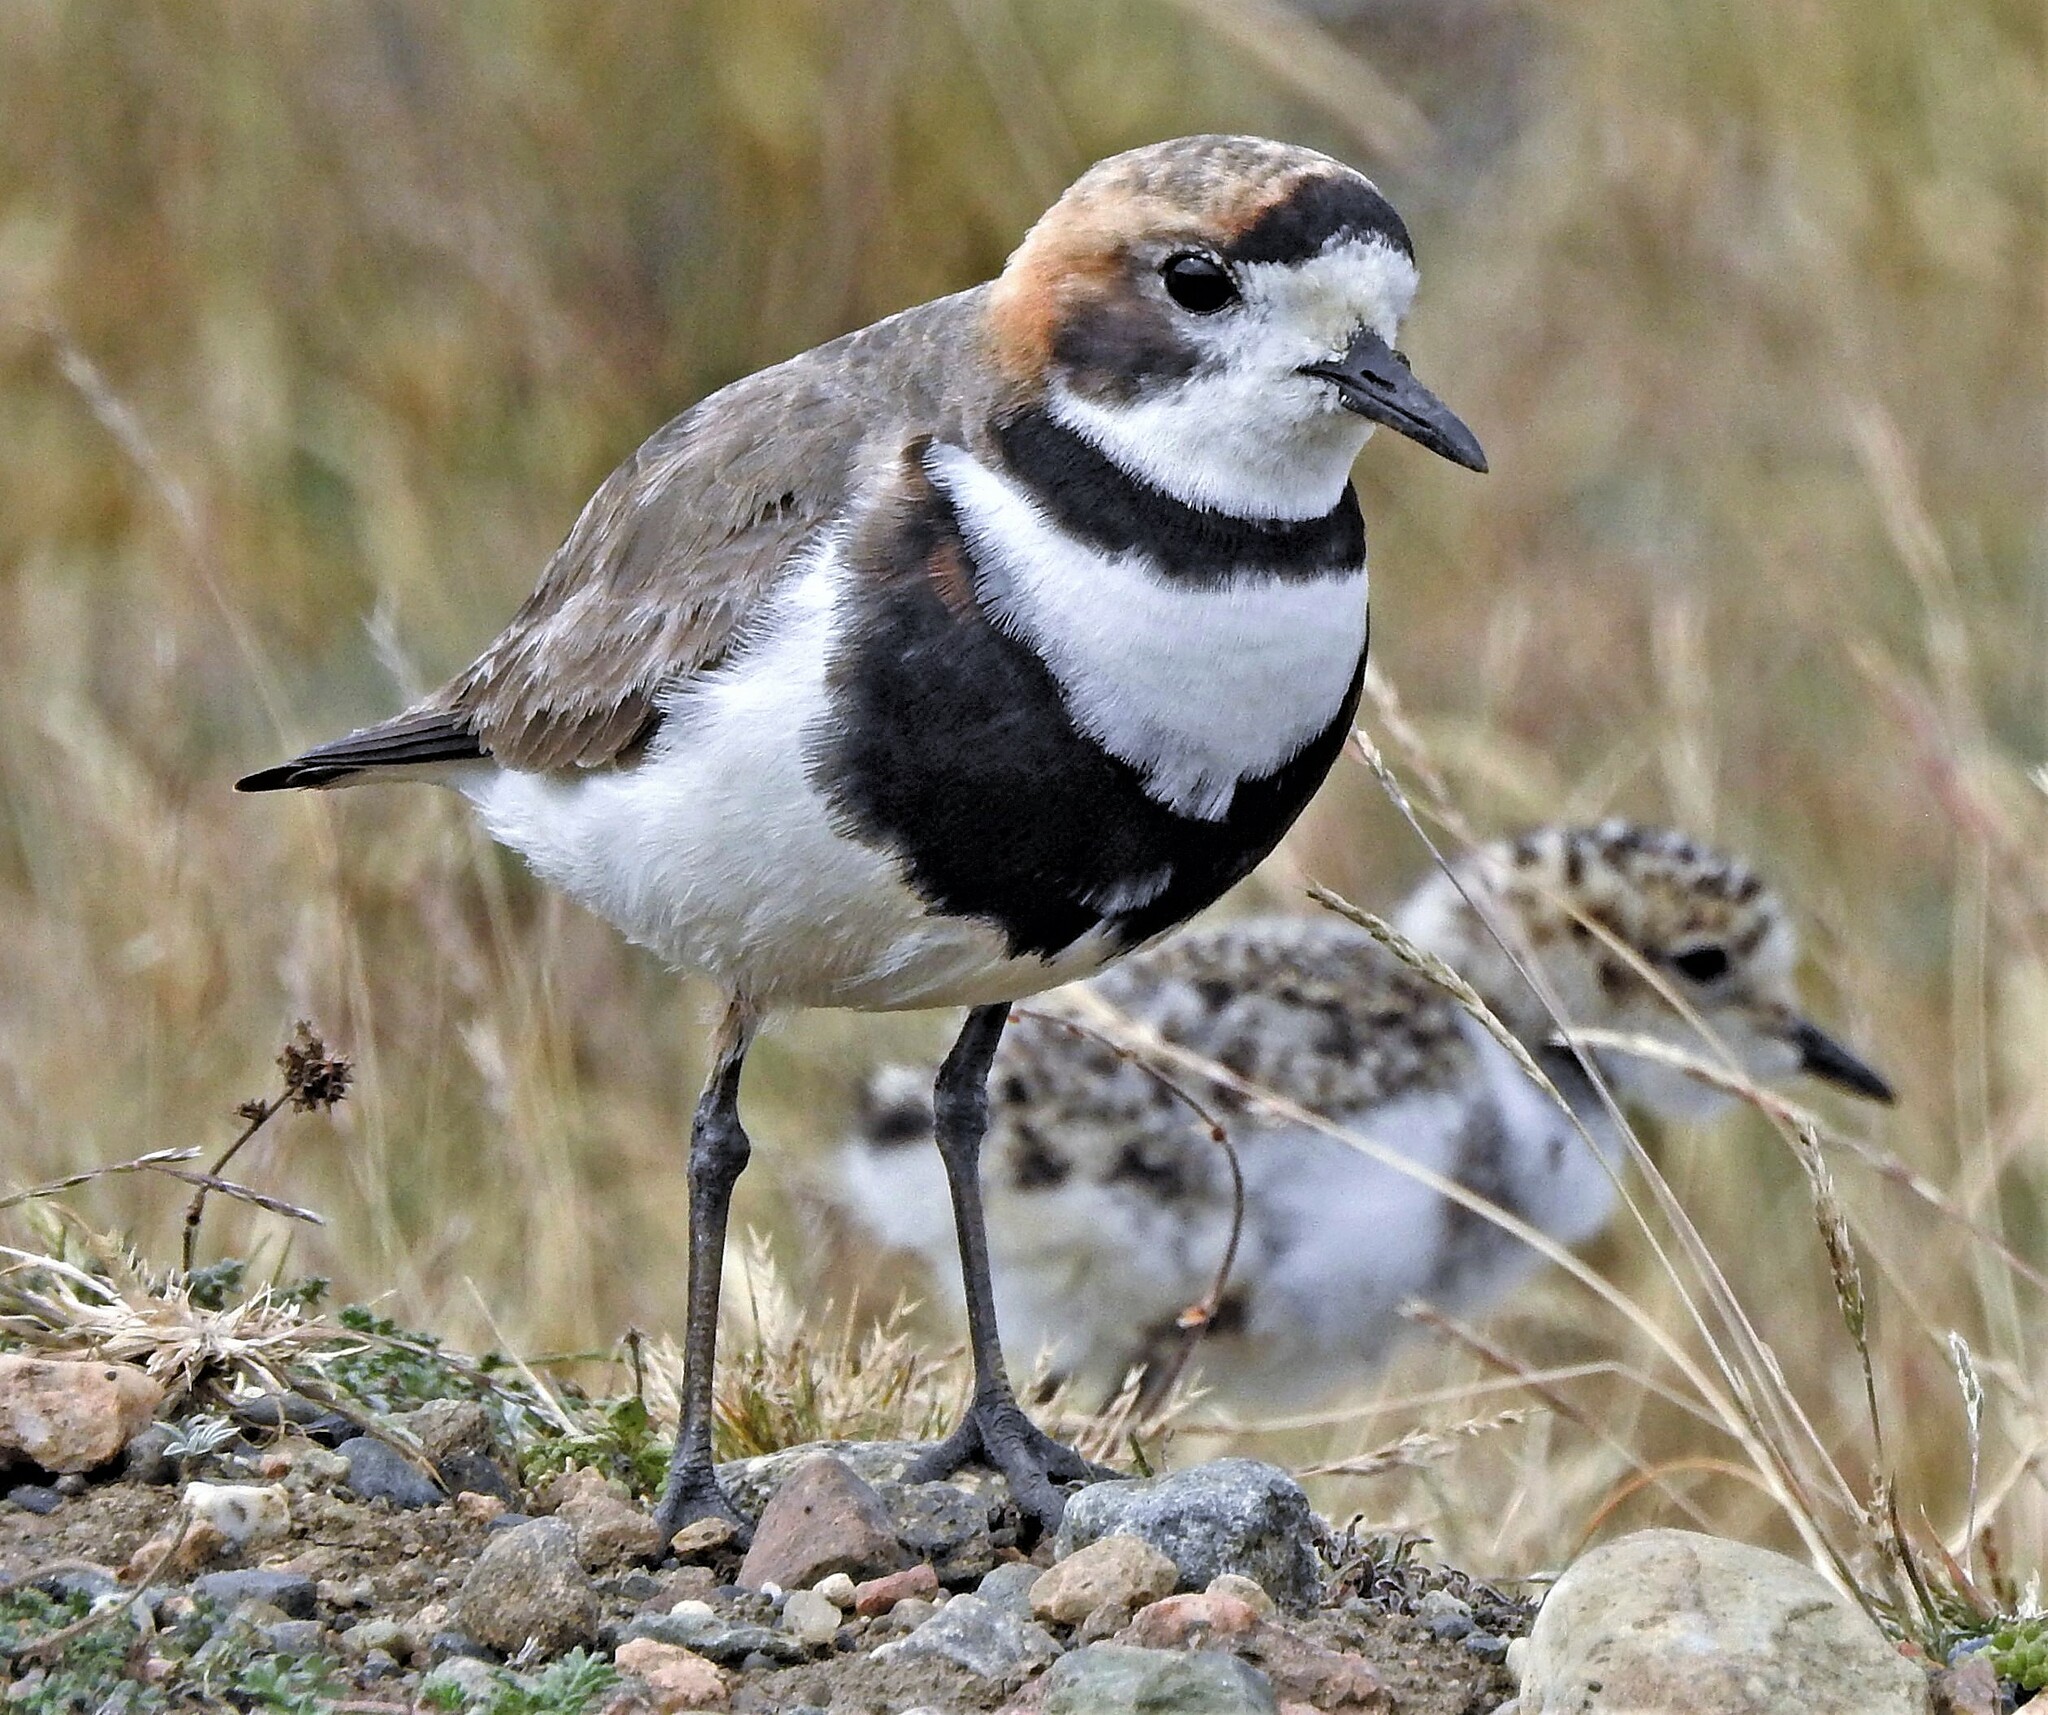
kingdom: Animalia
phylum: Chordata
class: Aves
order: Charadriiformes
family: Charadriidae
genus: Anarhynchus
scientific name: Anarhynchus
